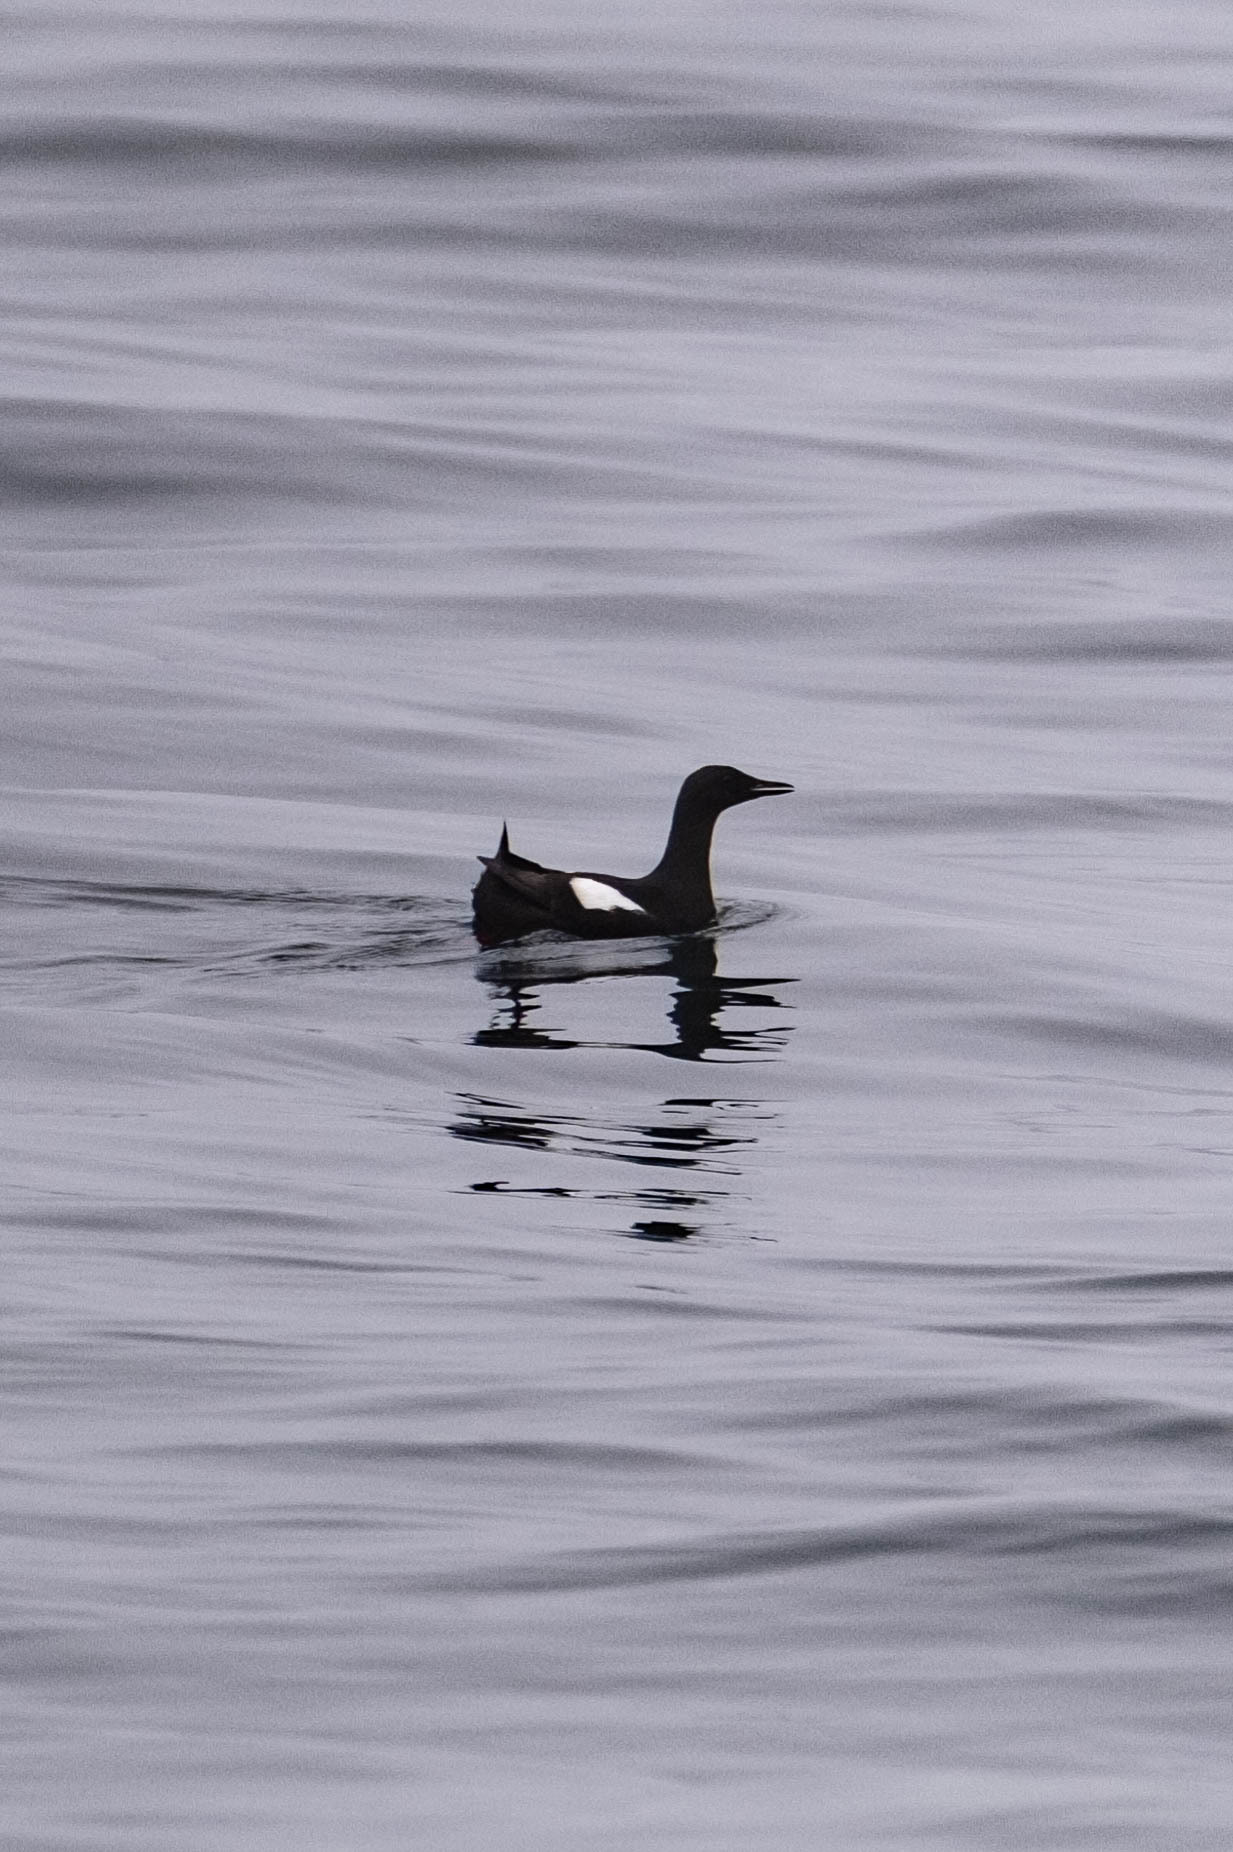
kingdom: Animalia
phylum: Chordata
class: Aves
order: Charadriiformes
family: Alcidae
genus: Cepphus
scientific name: Cepphus grylle
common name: Black guillemot
